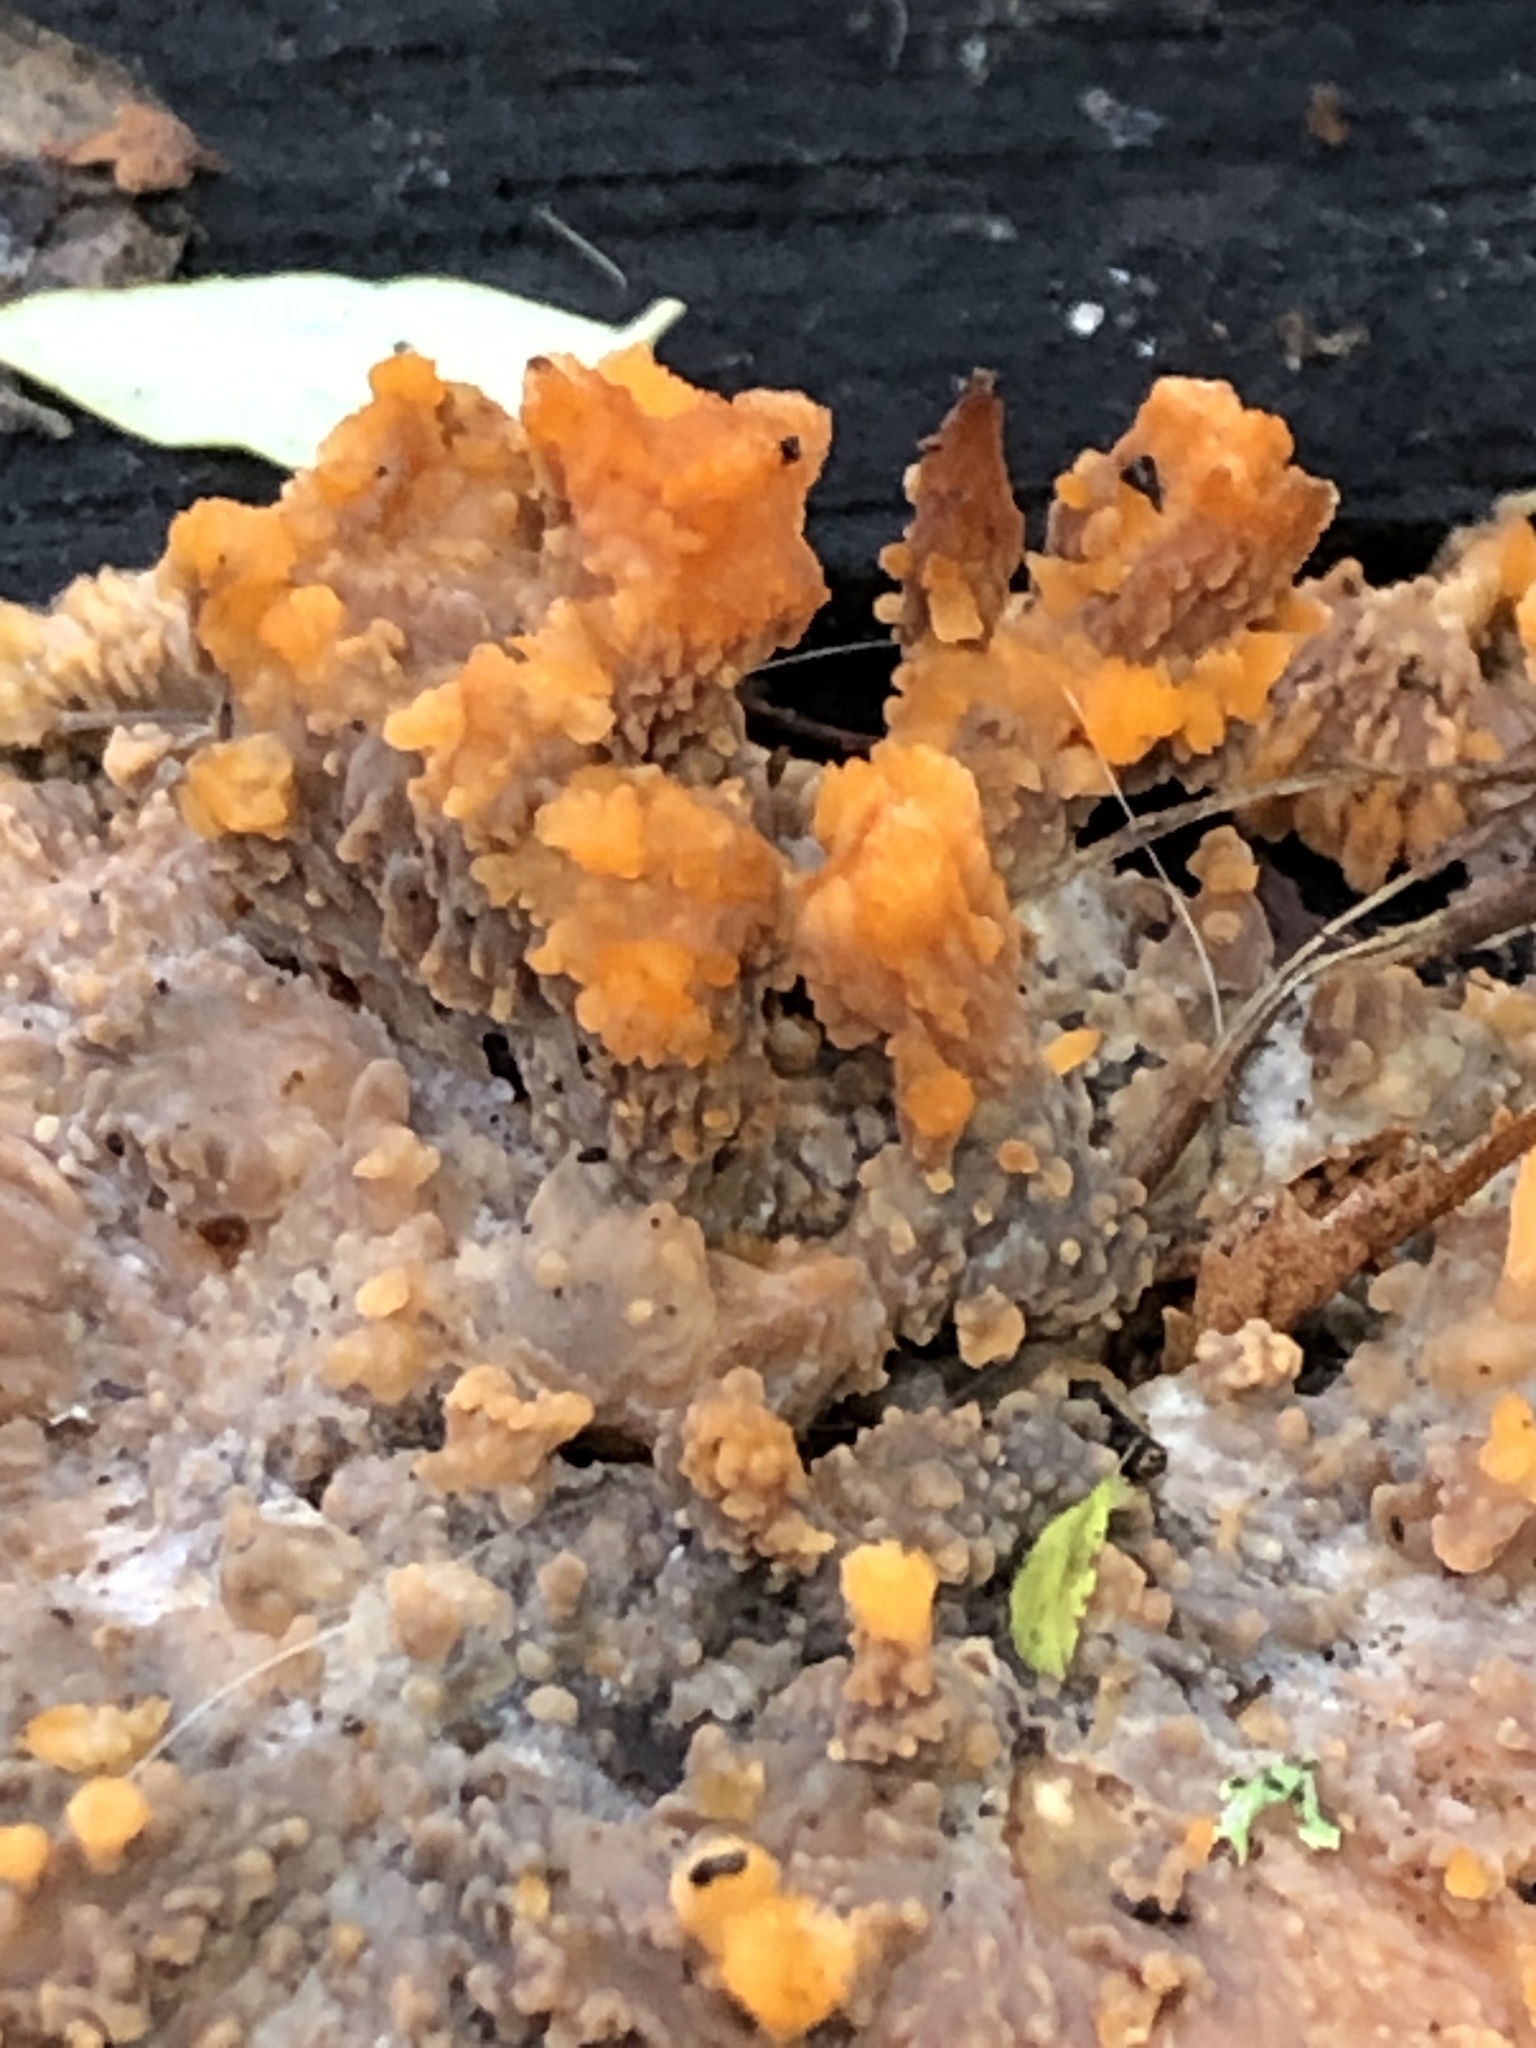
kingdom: Fungi
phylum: Basidiomycota
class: Agaricomycetes
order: Polyporales
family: Meruliaceae
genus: Phlebia
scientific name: Phlebia radiata
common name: Wrinkled crust
